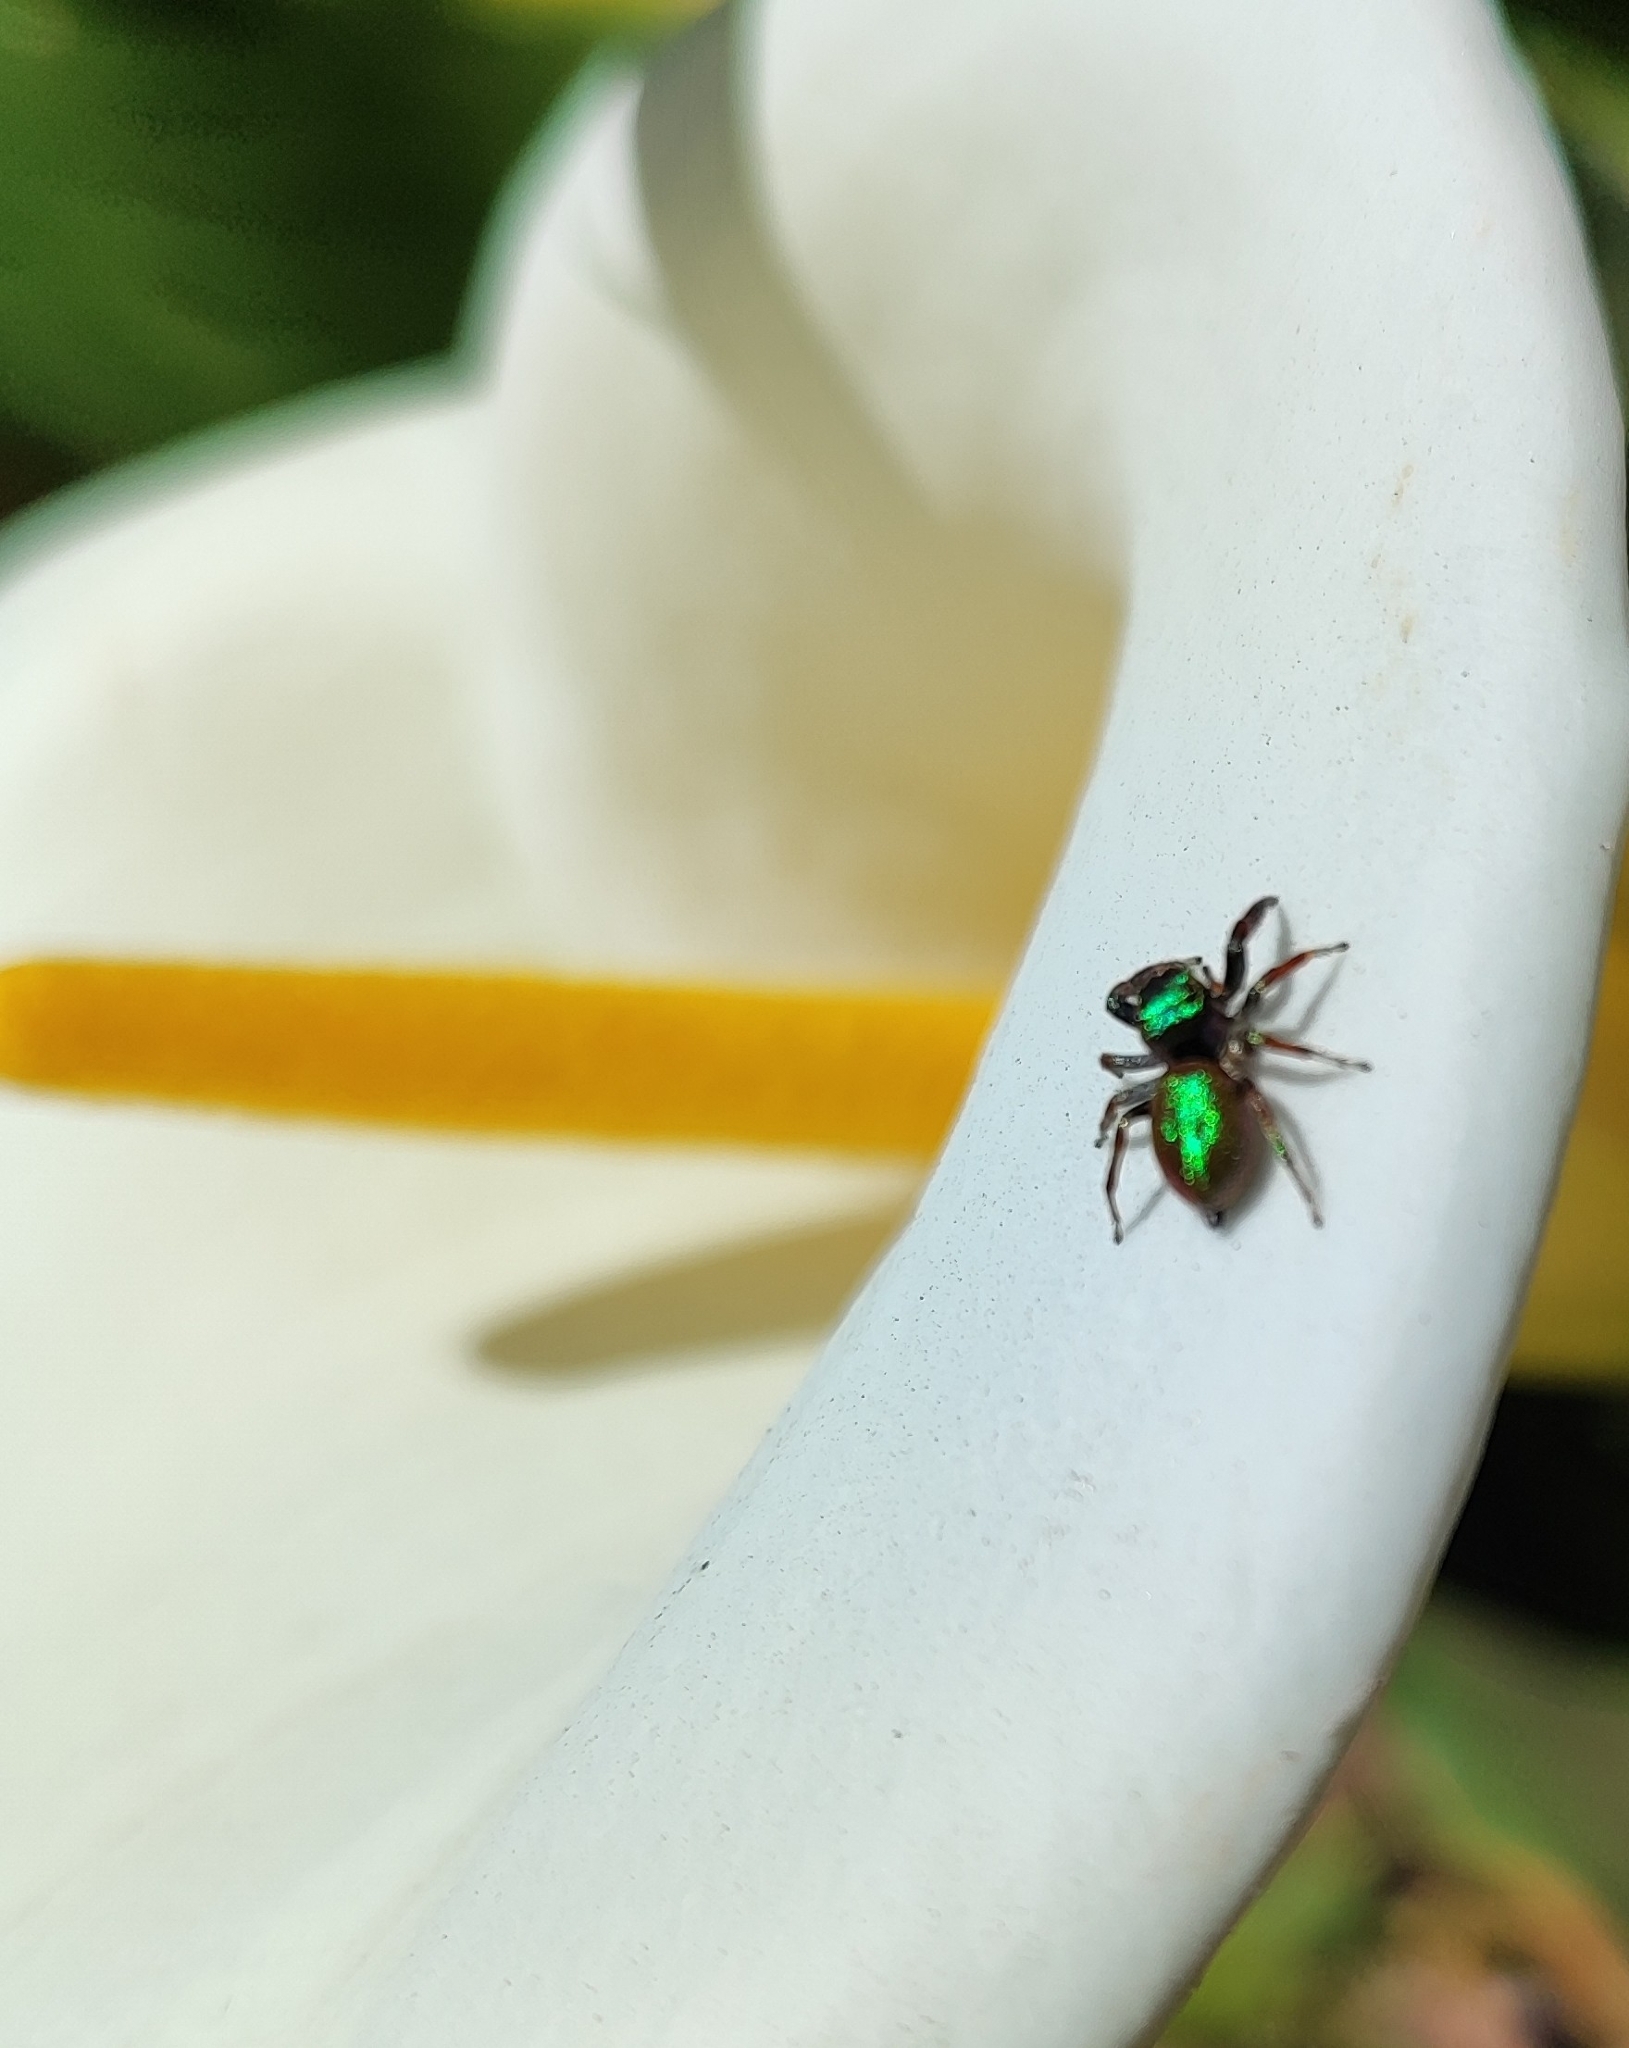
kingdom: Animalia
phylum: Arthropoda
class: Arachnida
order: Araneae
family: Salticidae
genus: Messua
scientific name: Messua limbata
